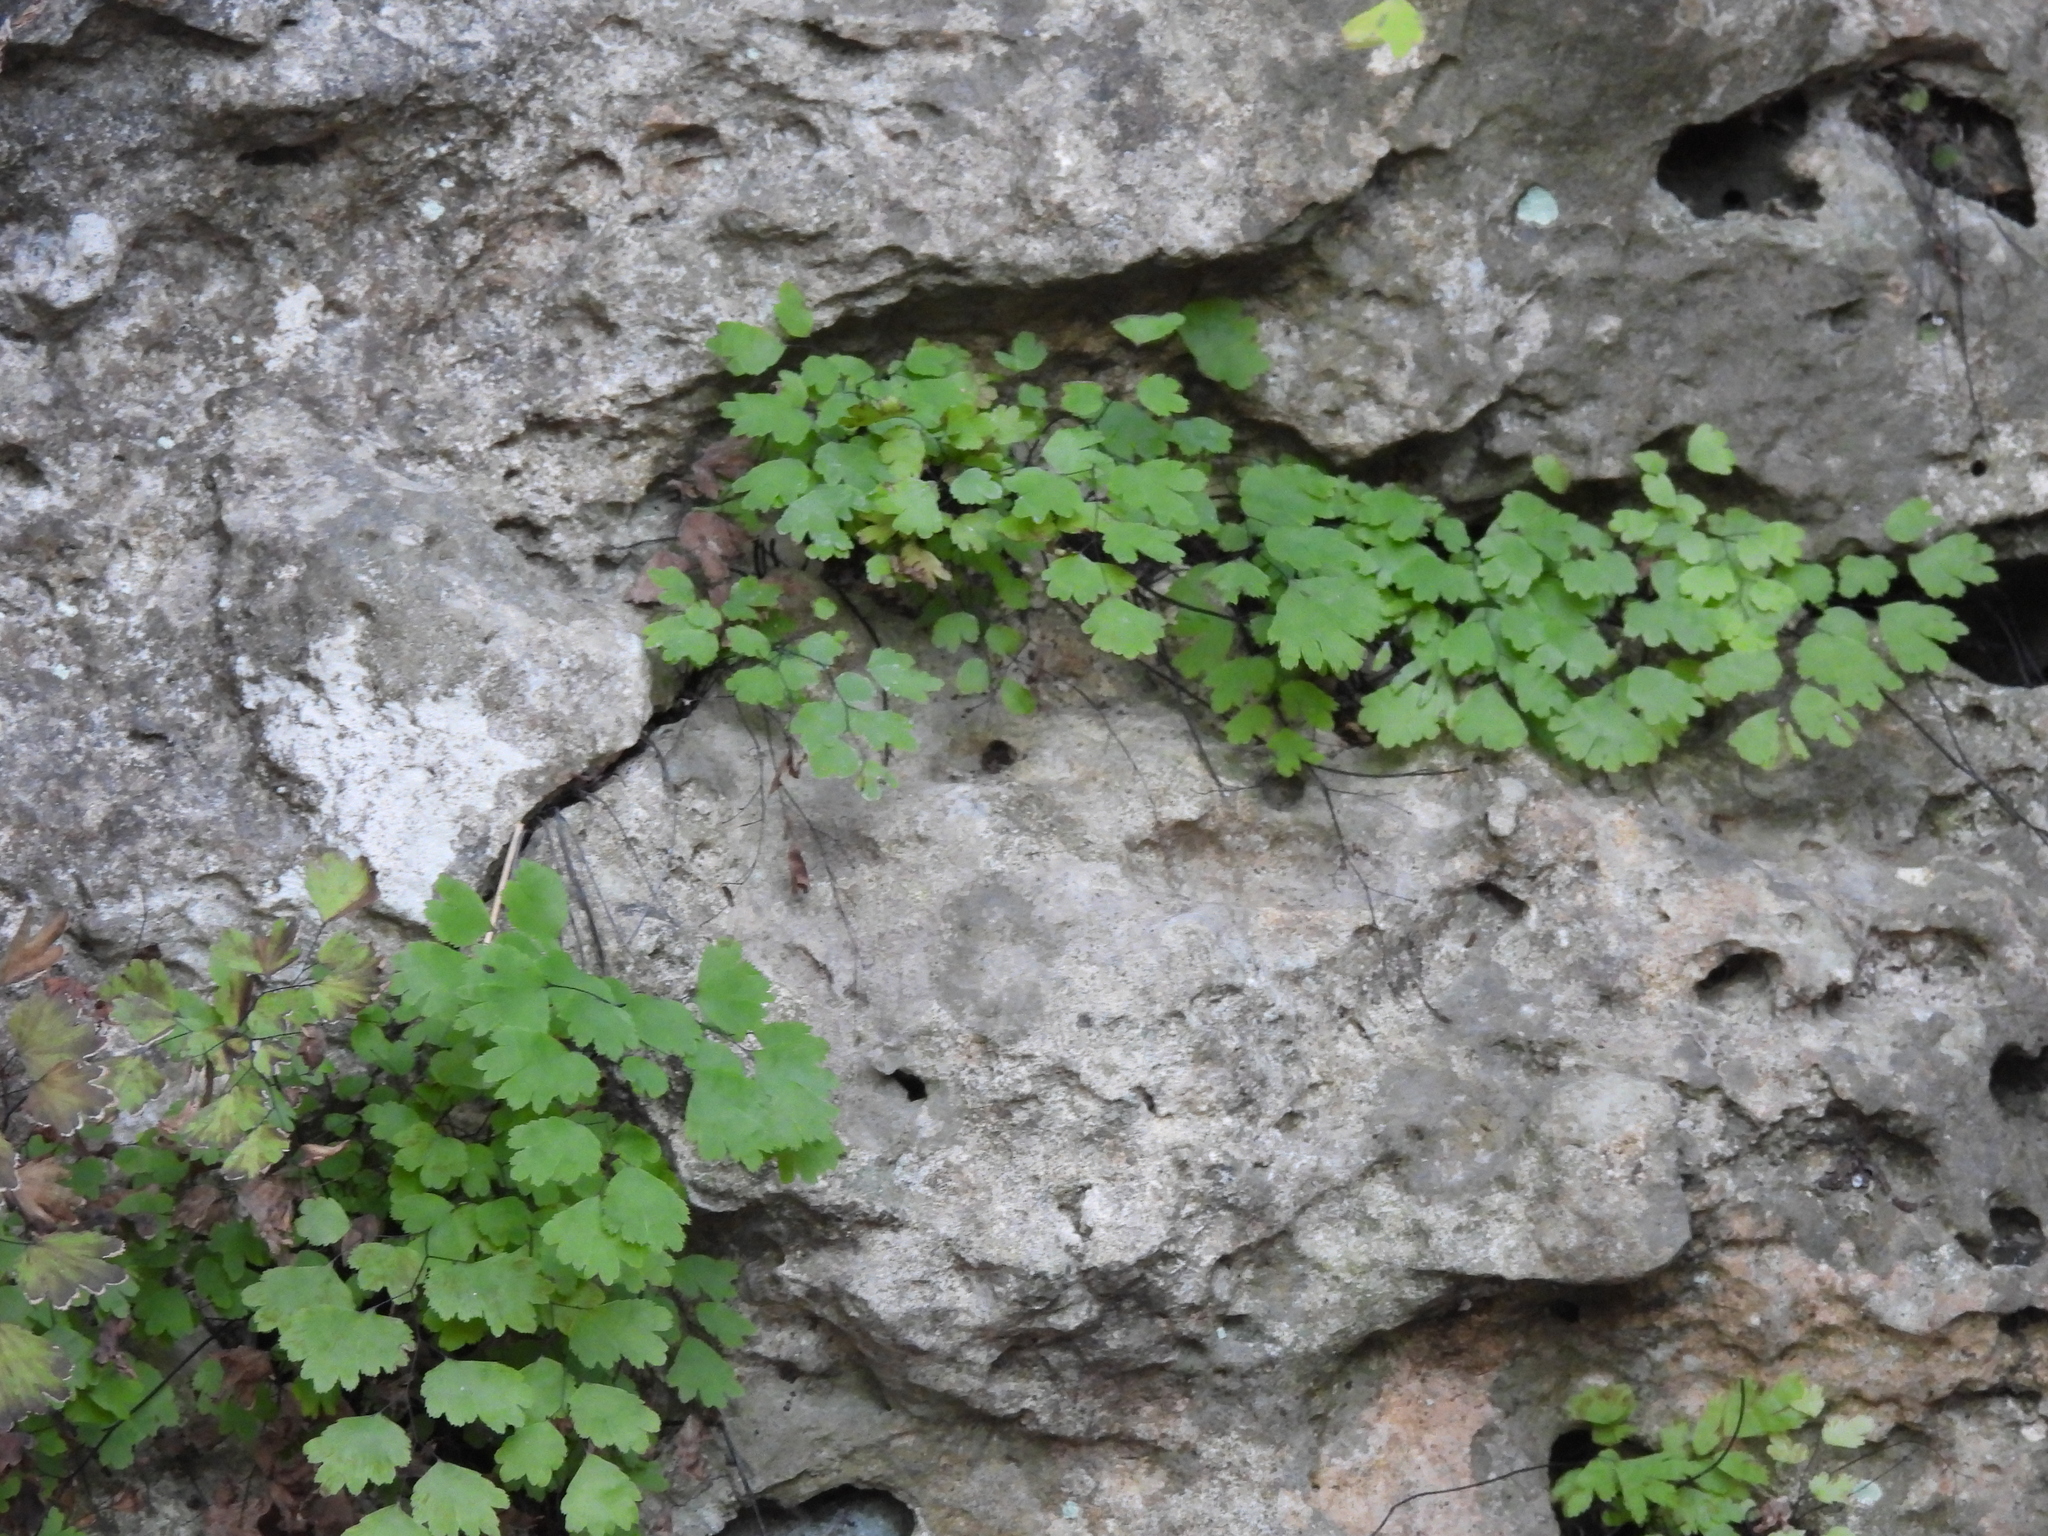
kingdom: Plantae
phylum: Tracheophyta
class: Polypodiopsida
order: Polypodiales
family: Pteridaceae
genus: Adiantum
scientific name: Adiantum capillus-veneris
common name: Maidenhair fern
